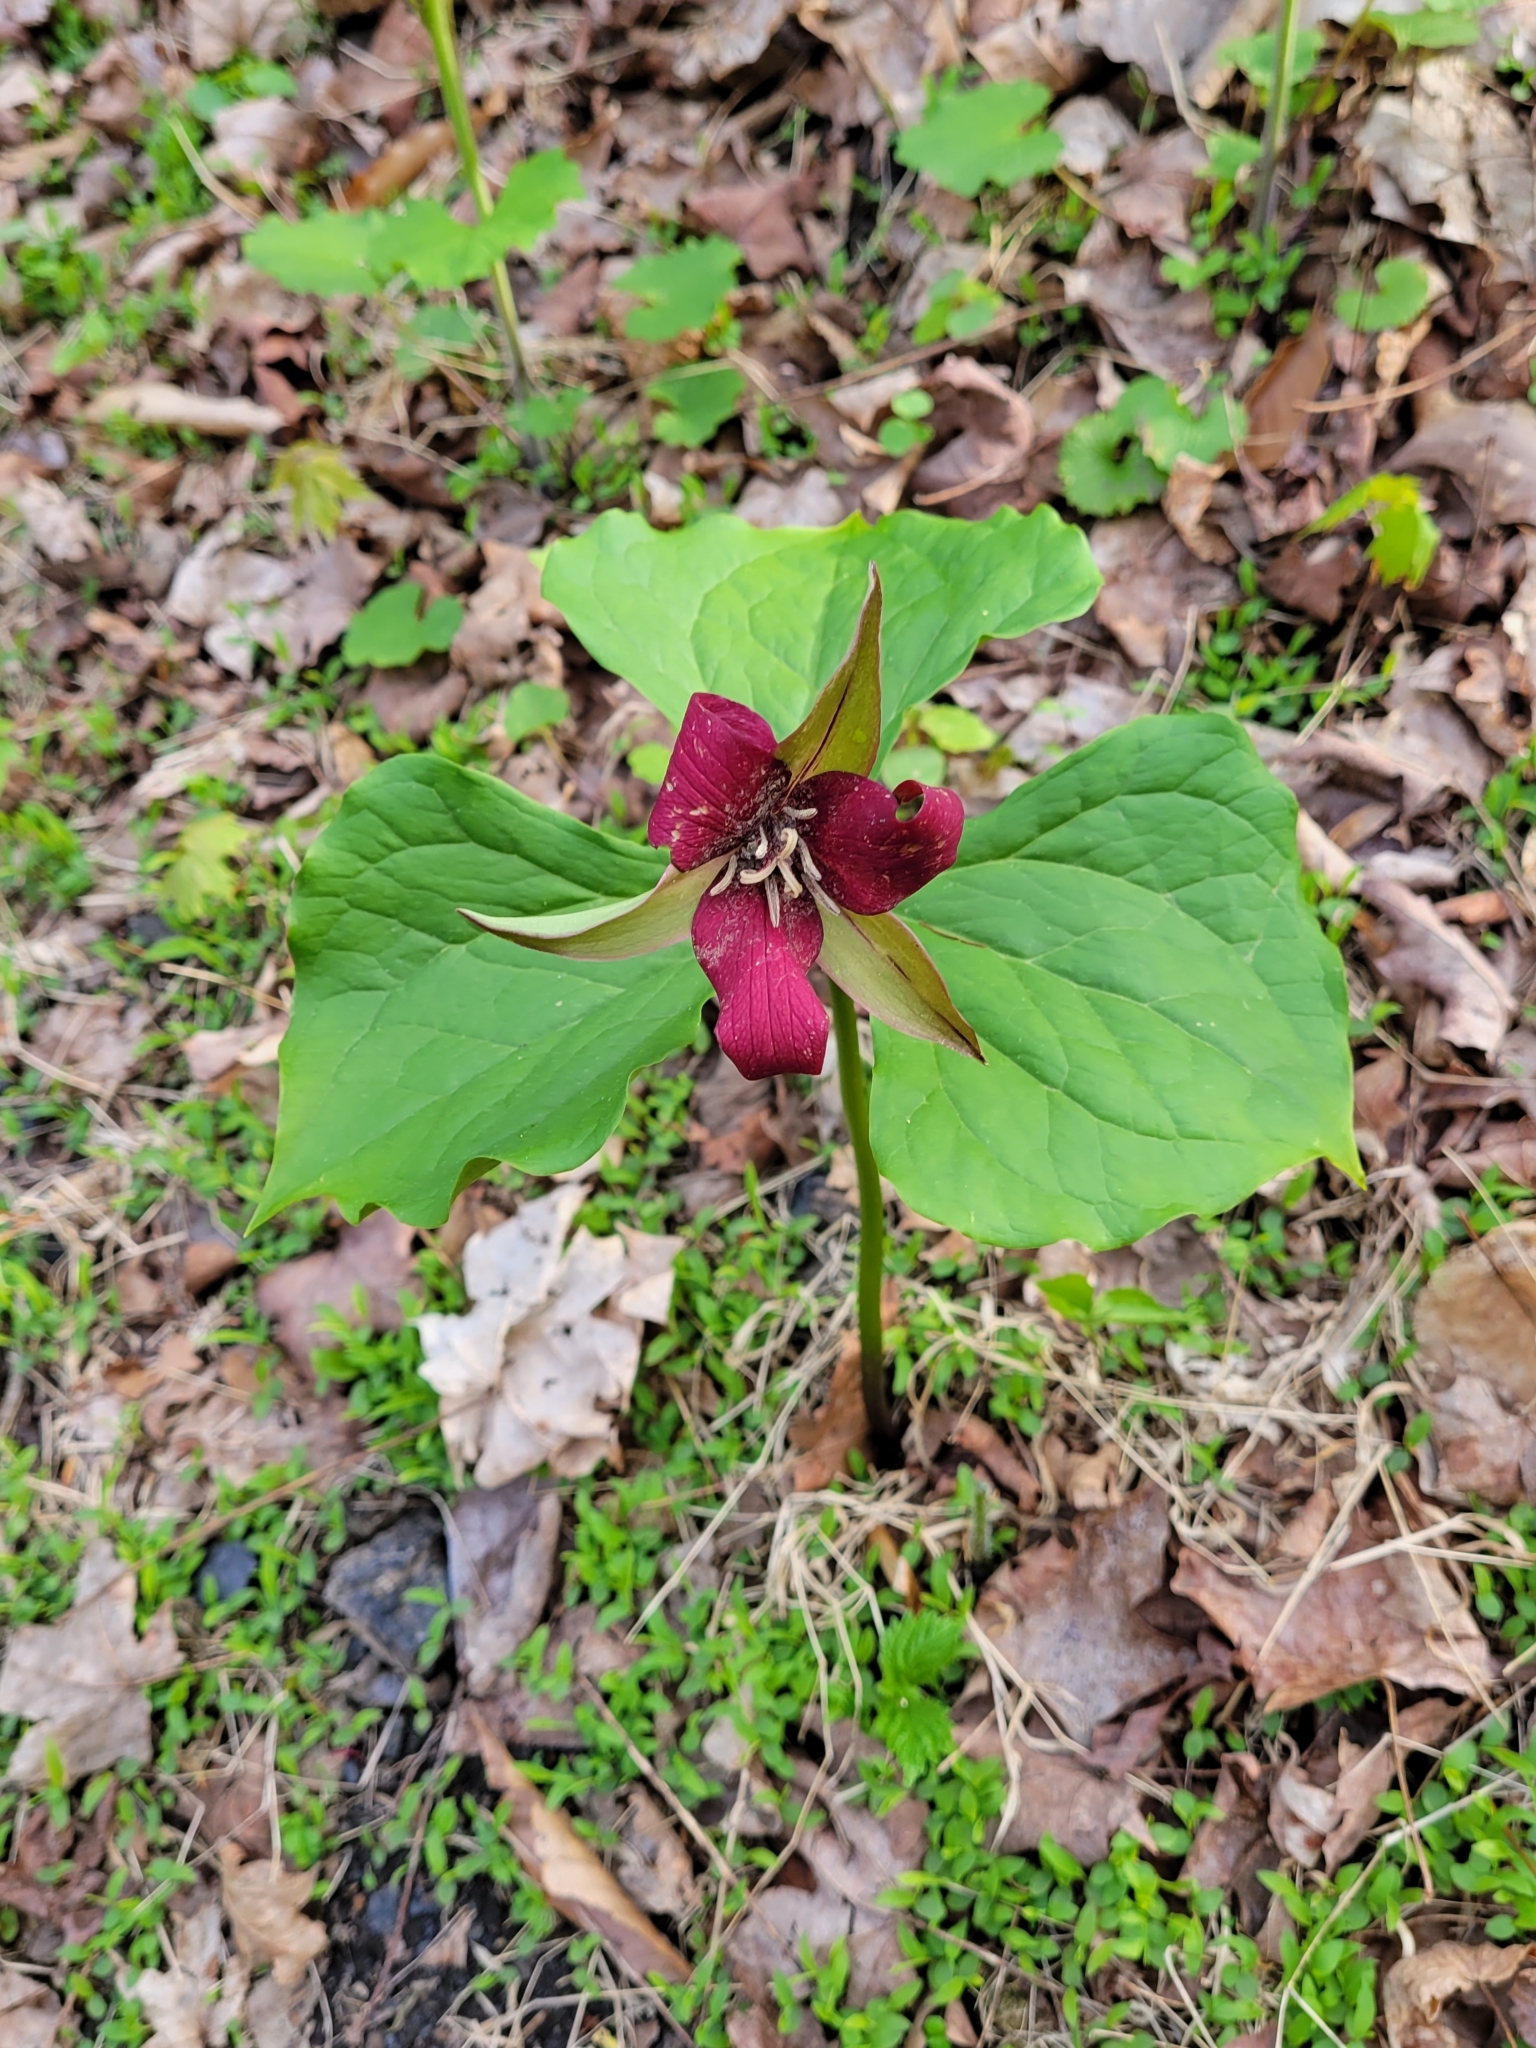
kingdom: Plantae
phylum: Tracheophyta
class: Liliopsida
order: Liliales
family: Melanthiaceae
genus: Trillium
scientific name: Trillium erectum
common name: Purple trillium
